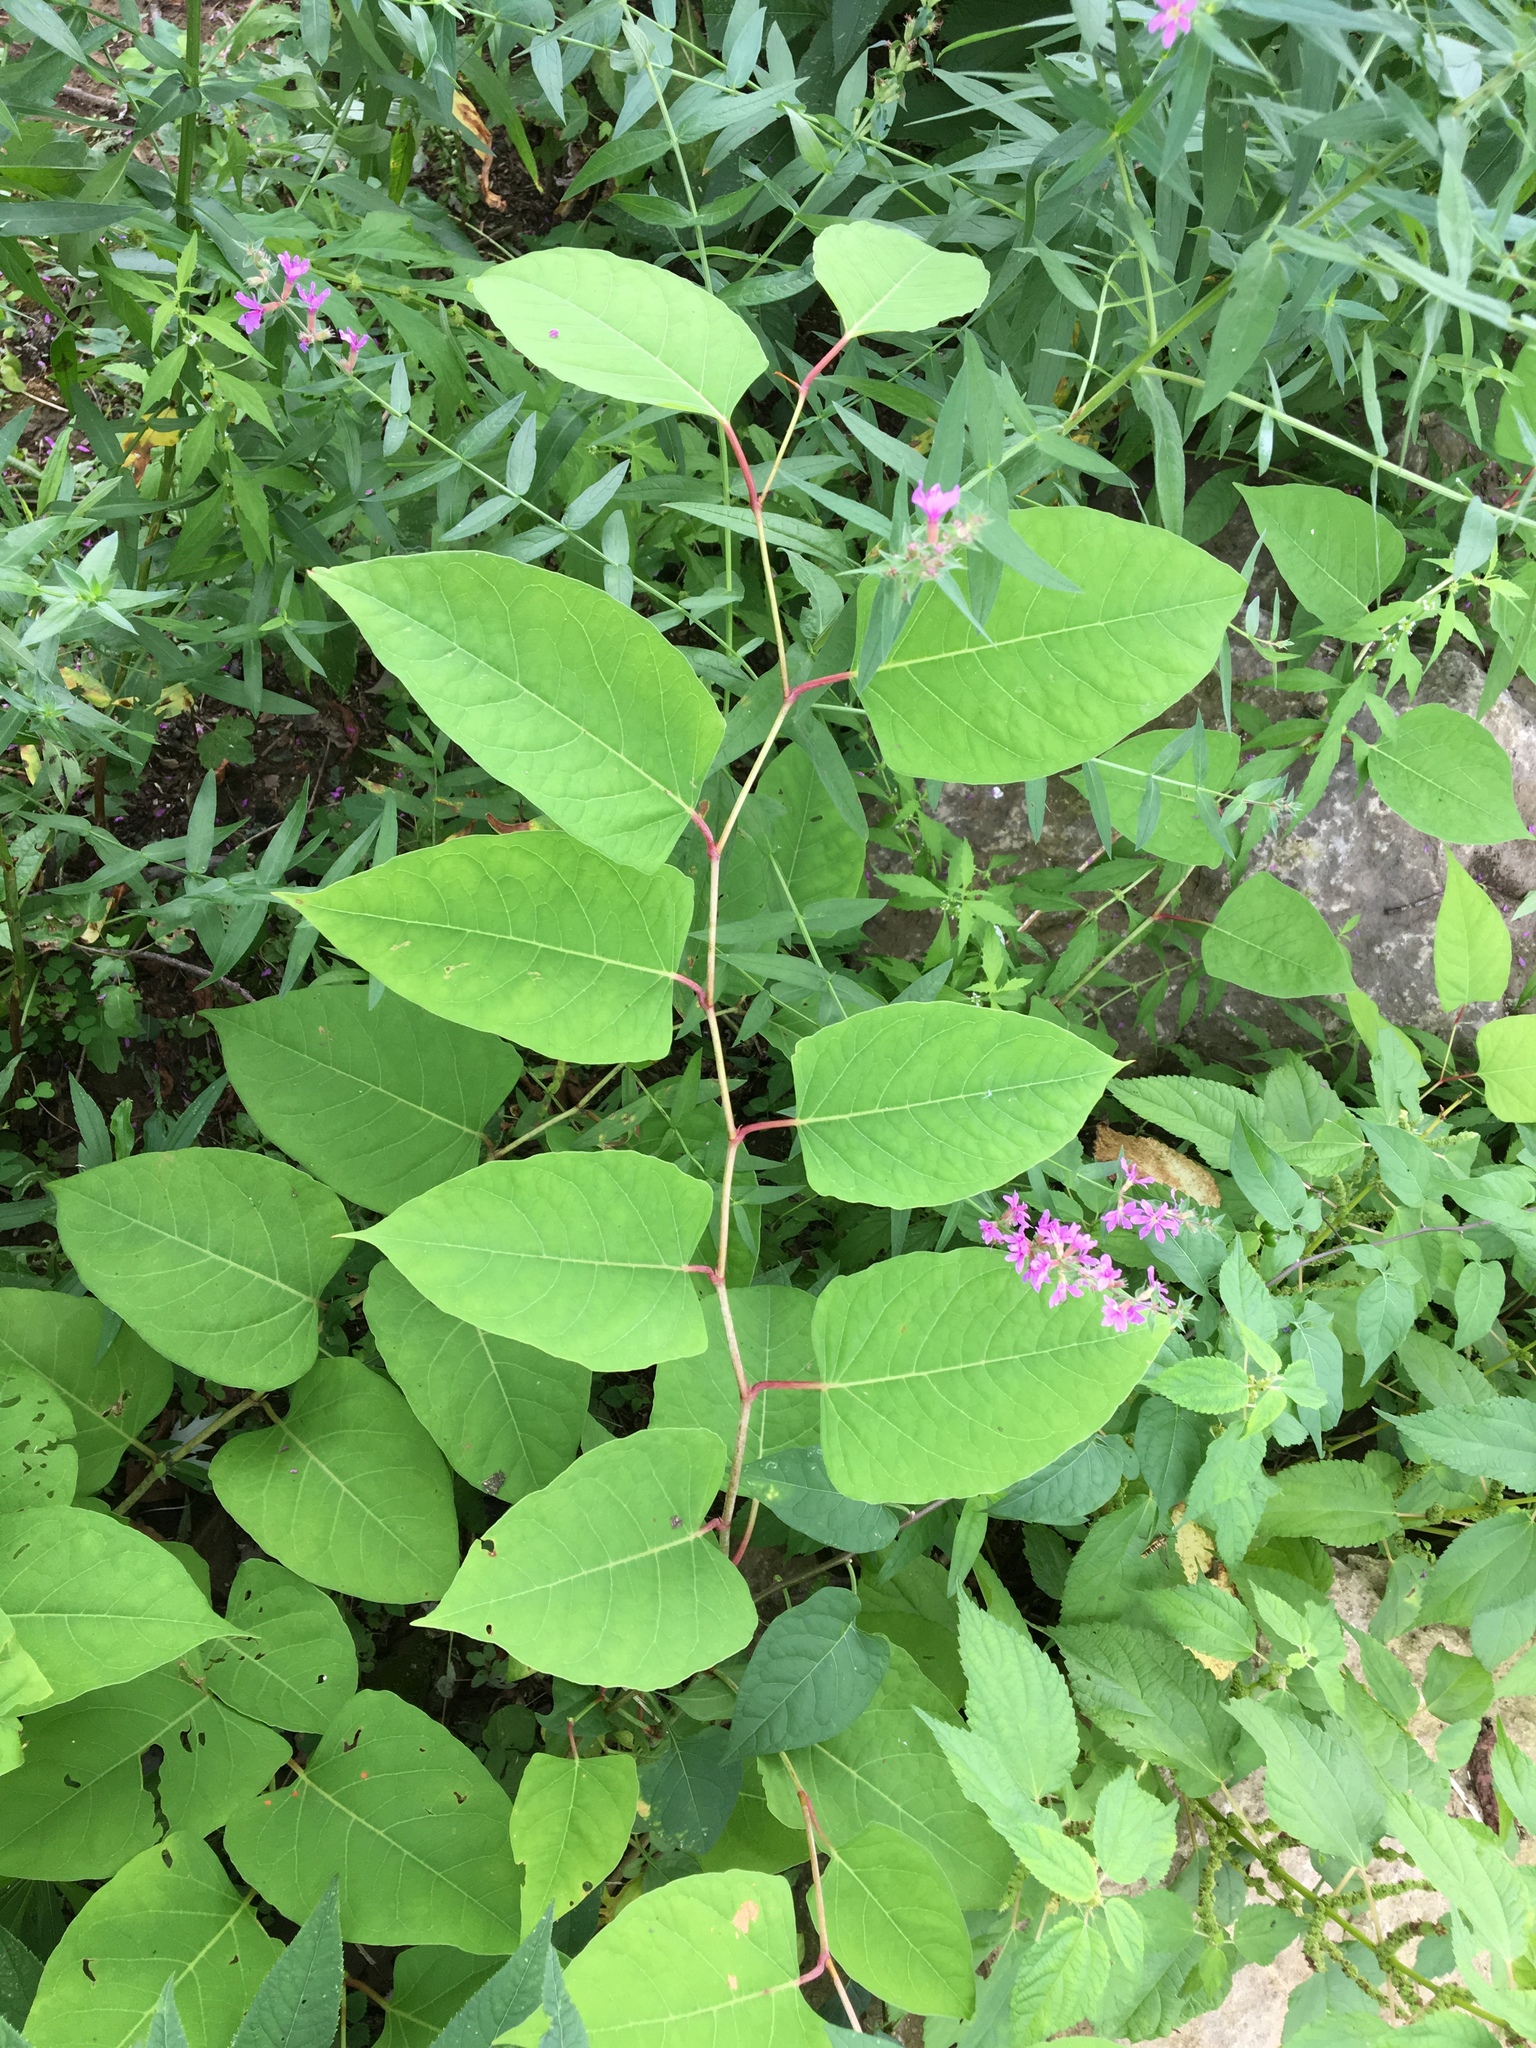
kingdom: Plantae
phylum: Tracheophyta
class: Magnoliopsida
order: Caryophyllales
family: Polygonaceae
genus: Reynoutria
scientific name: Reynoutria japonica
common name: Japanese knotweed
